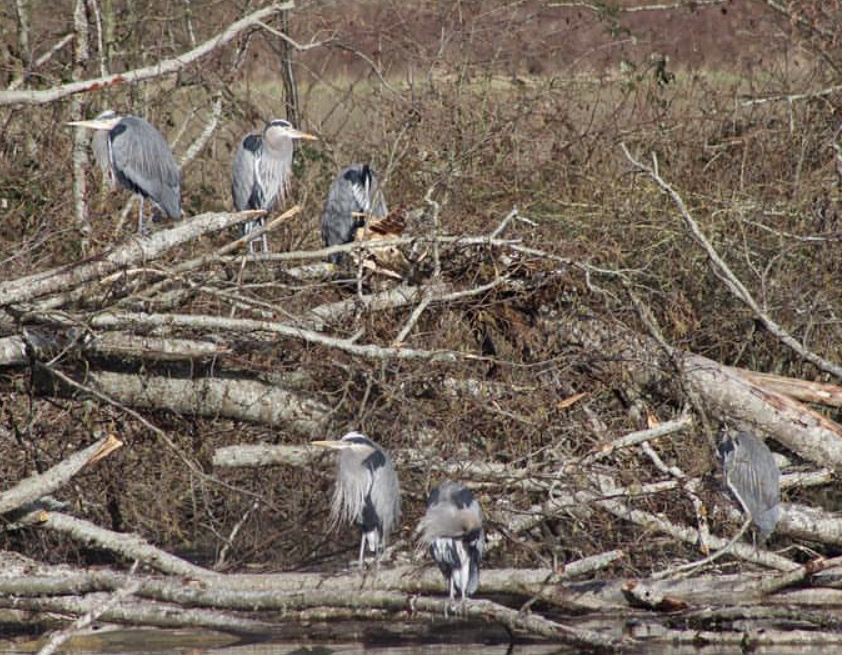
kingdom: Animalia
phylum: Chordata
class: Aves
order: Pelecaniformes
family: Ardeidae
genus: Ardea
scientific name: Ardea herodias
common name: Great blue heron
